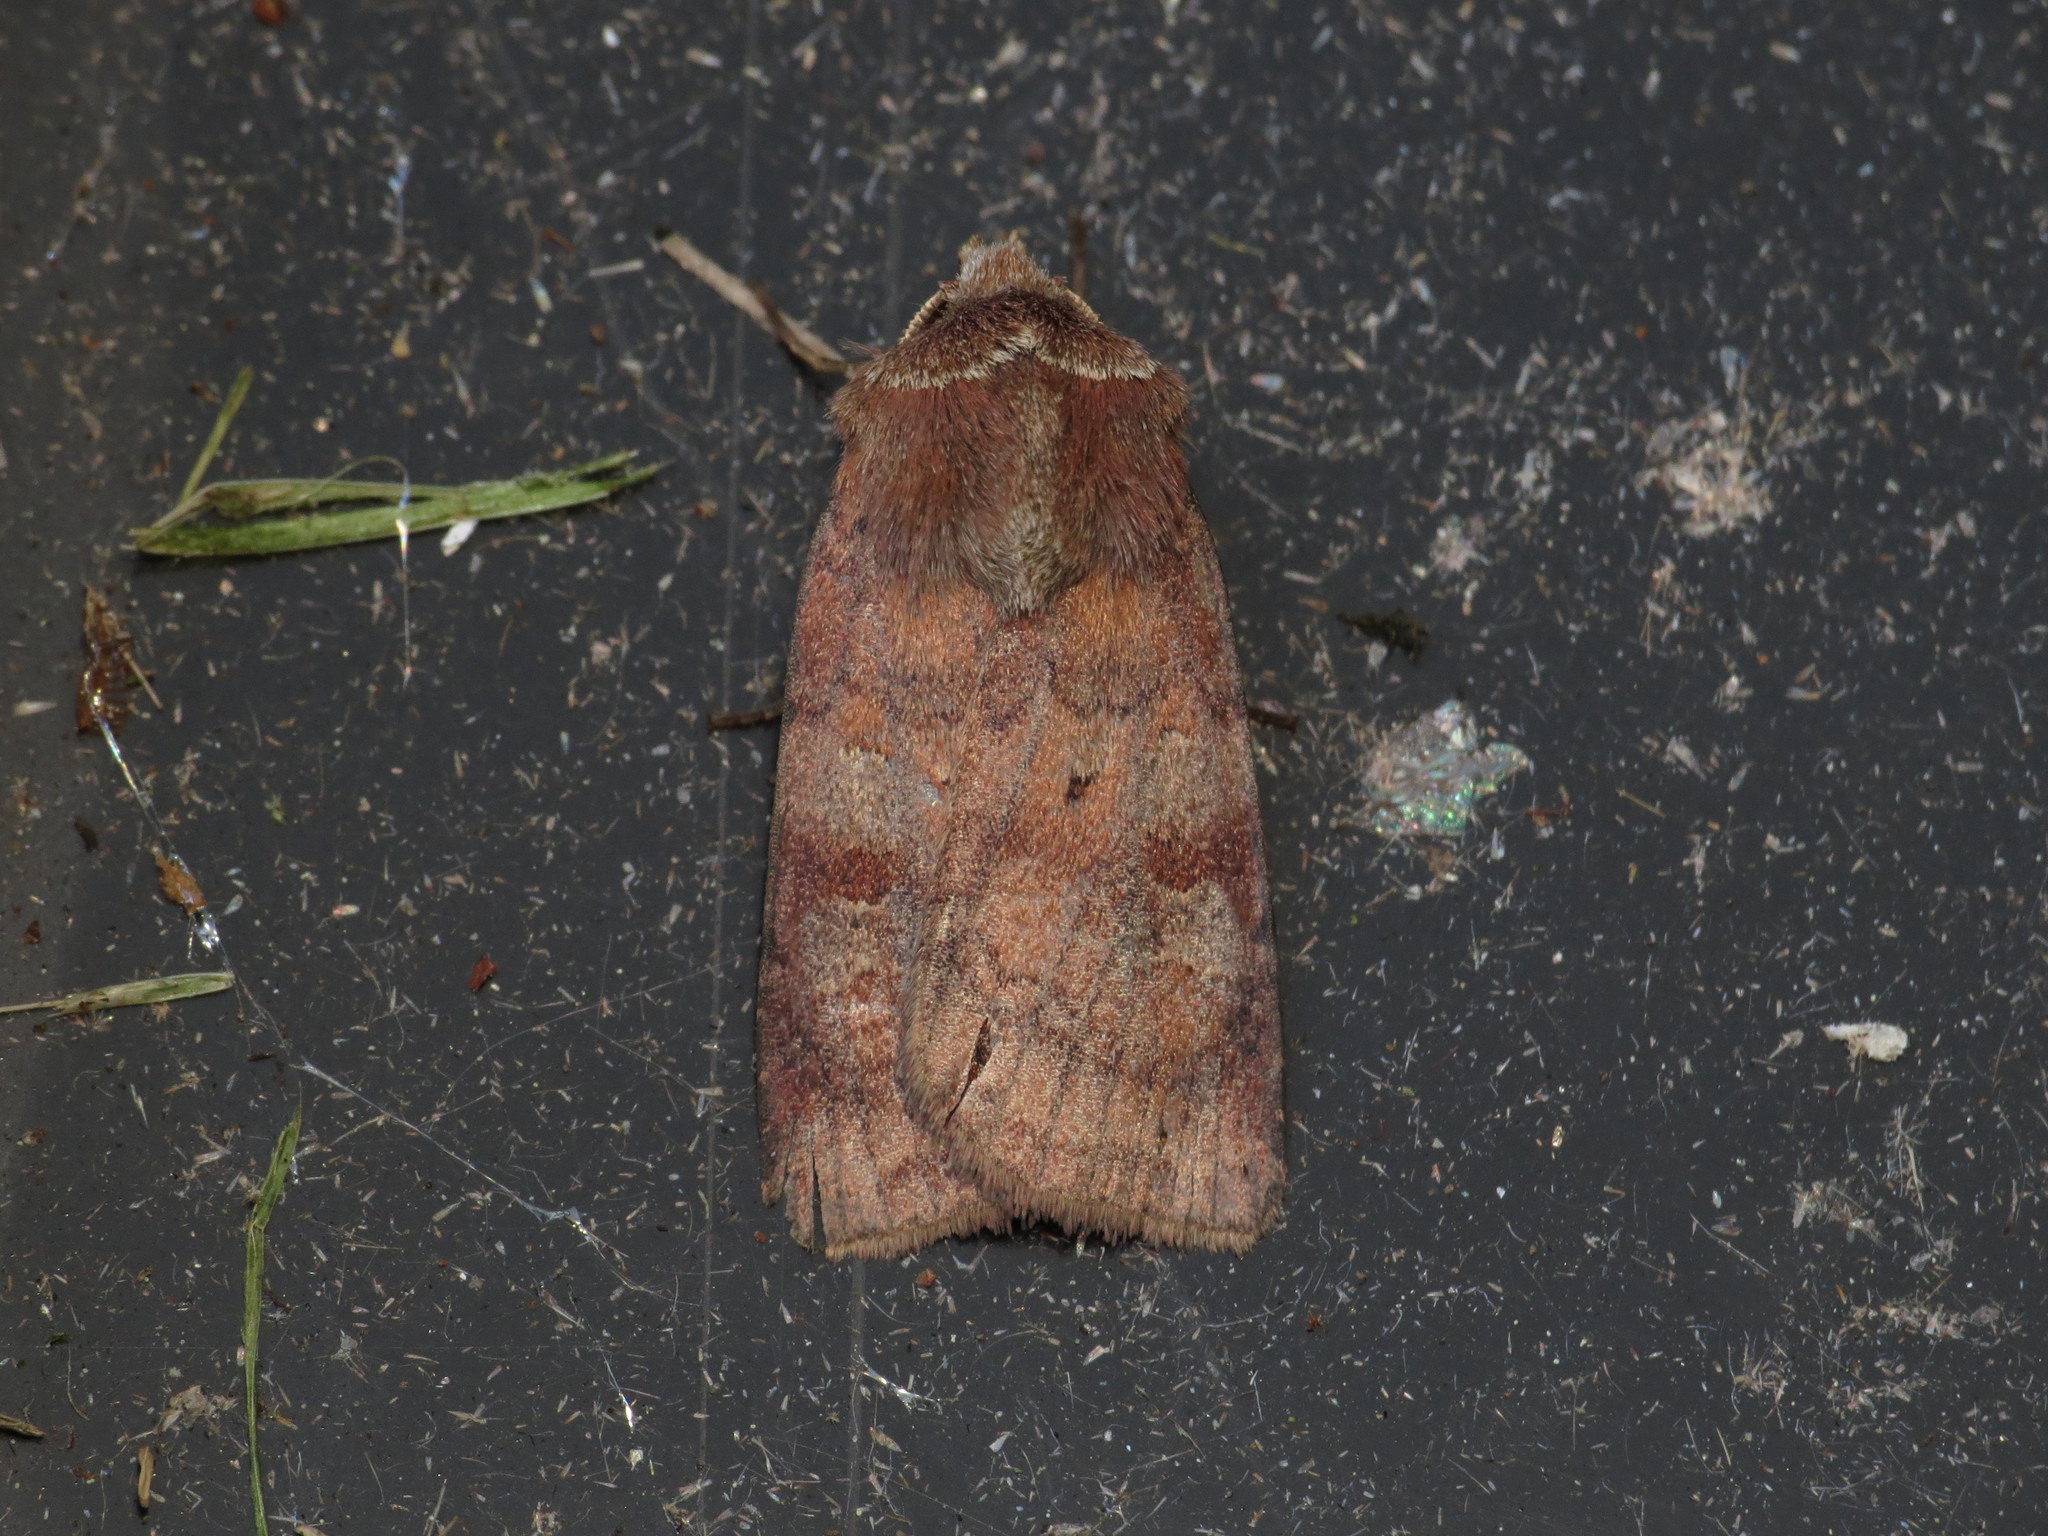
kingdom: Animalia
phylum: Arthropoda
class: Insecta
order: Lepidoptera
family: Noctuidae
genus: Diarsia
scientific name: Diarsia rubi
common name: Small square-spot
